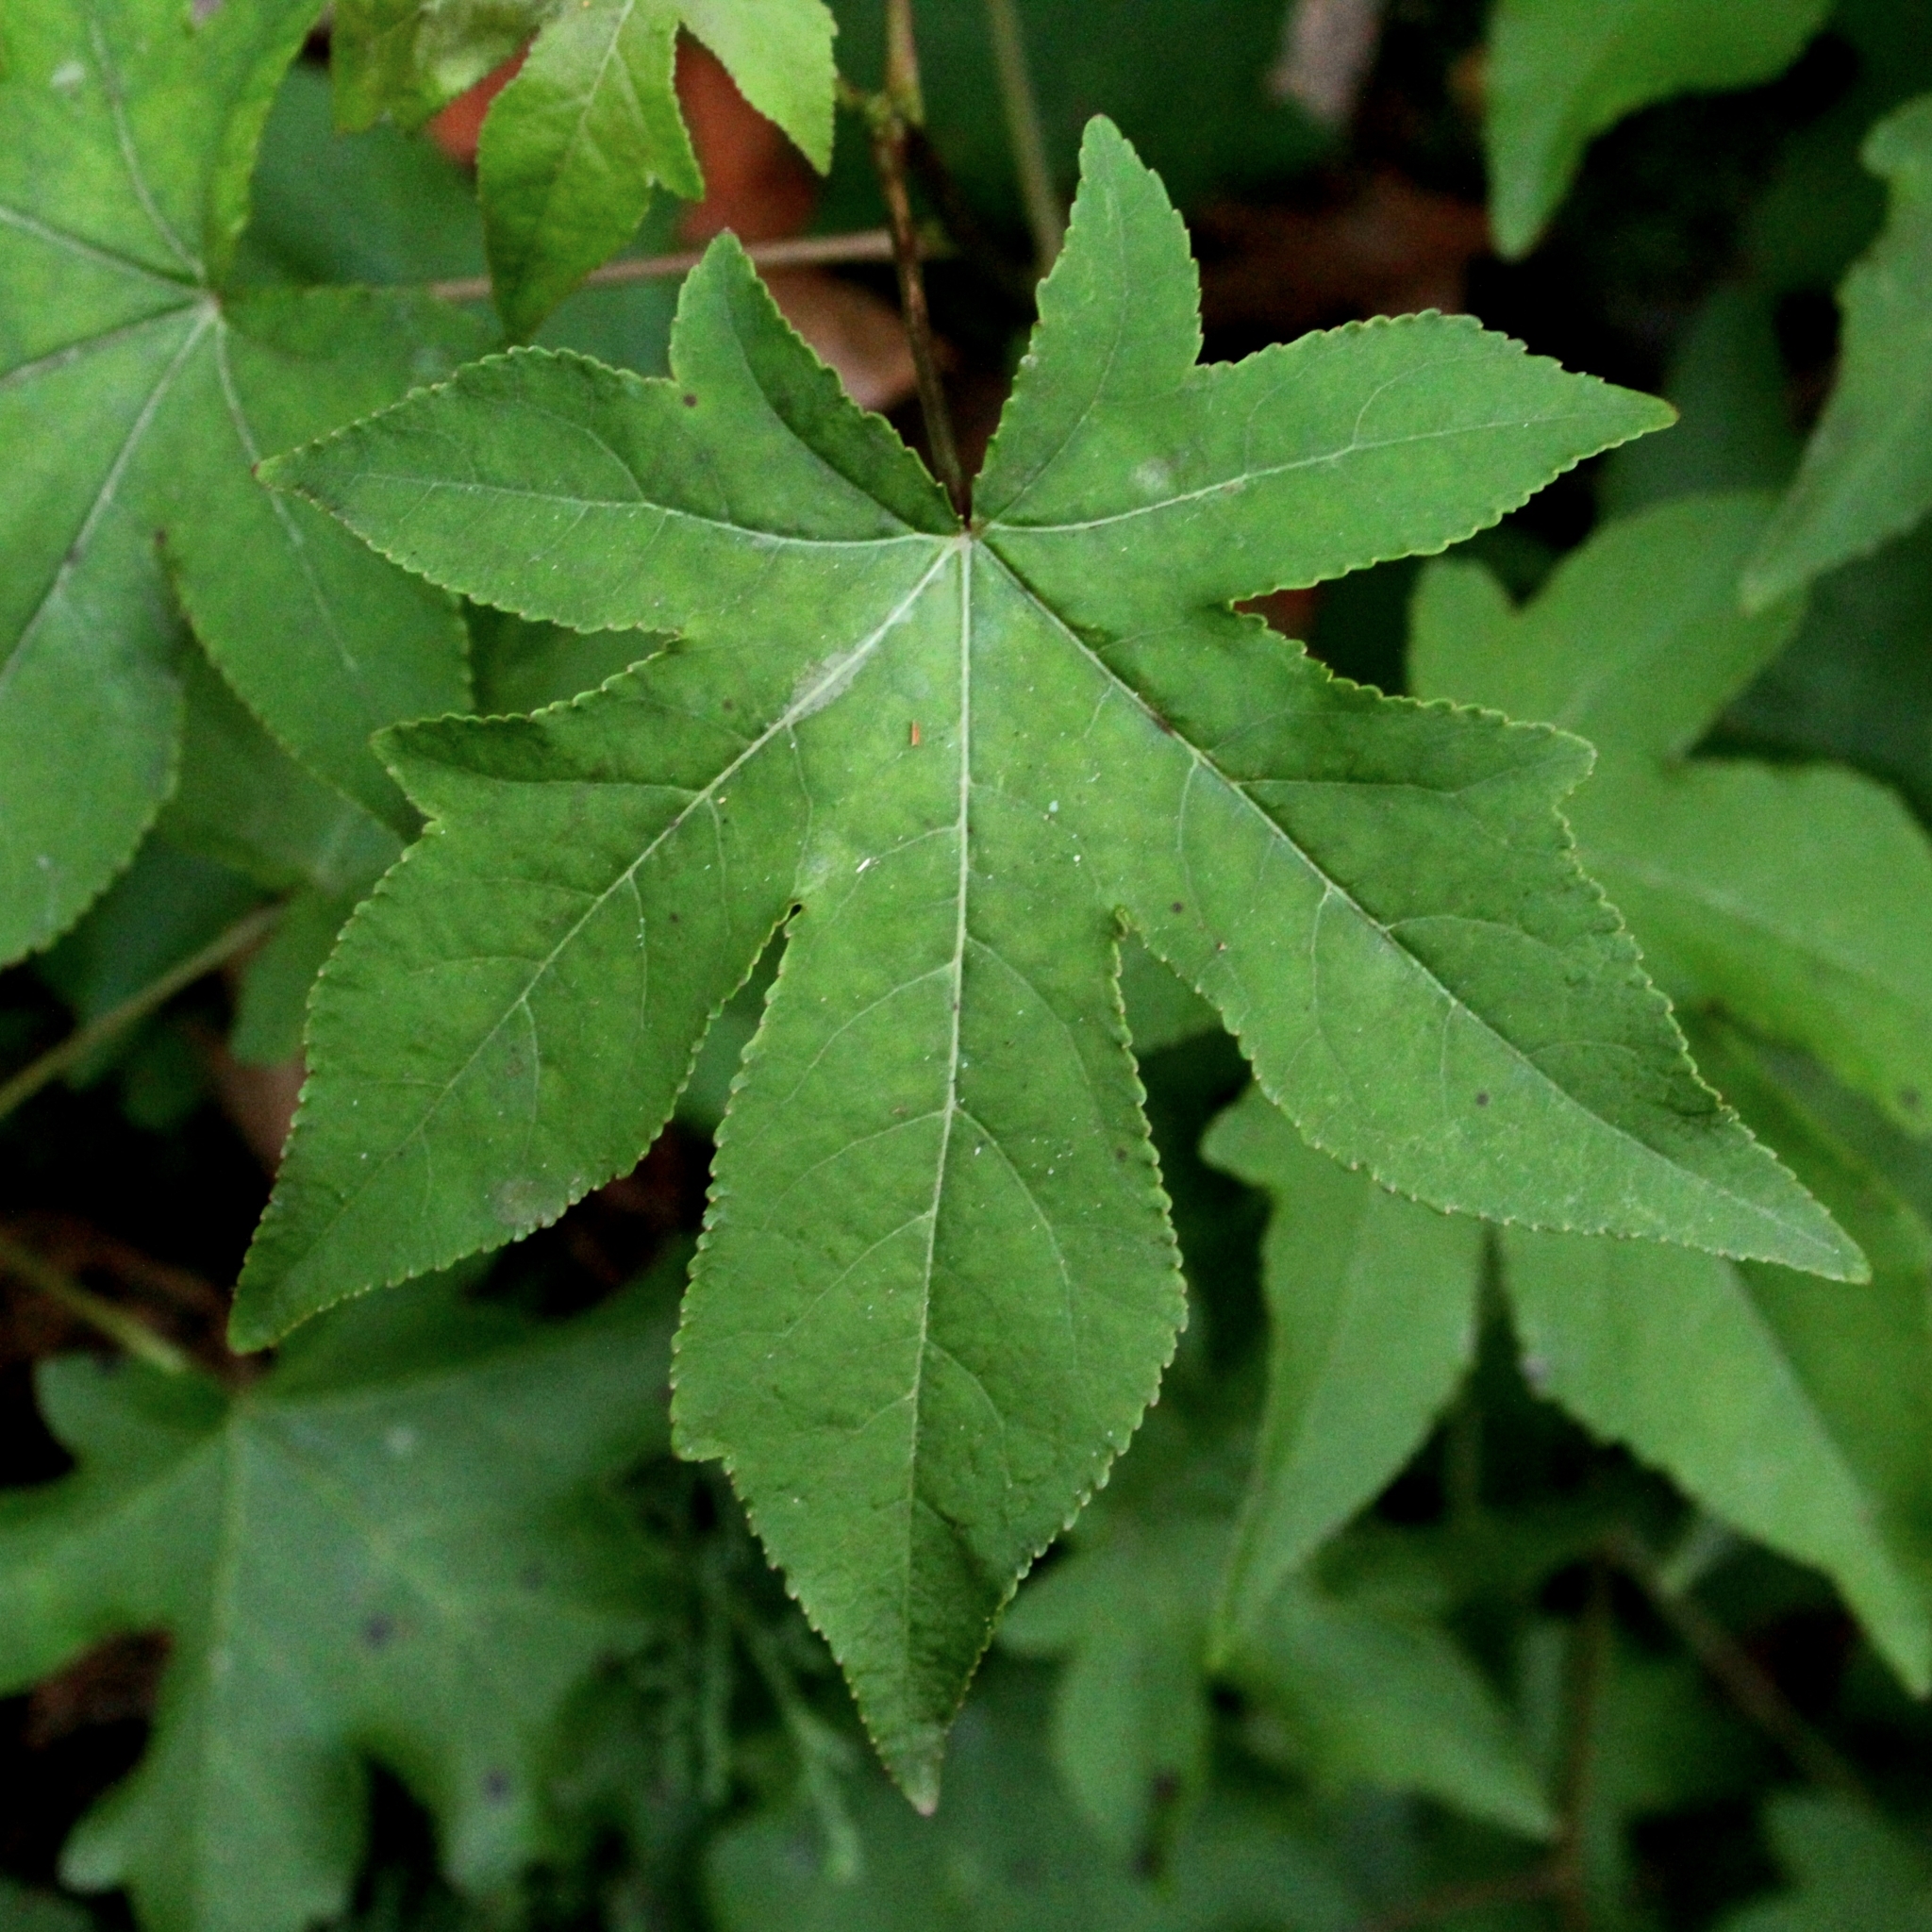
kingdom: Plantae
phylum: Tracheophyta
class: Magnoliopsida
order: Saxifragales
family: Altingiaceae
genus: Liquidambar
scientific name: Liquidambar styraciflua
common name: Sweet gum
